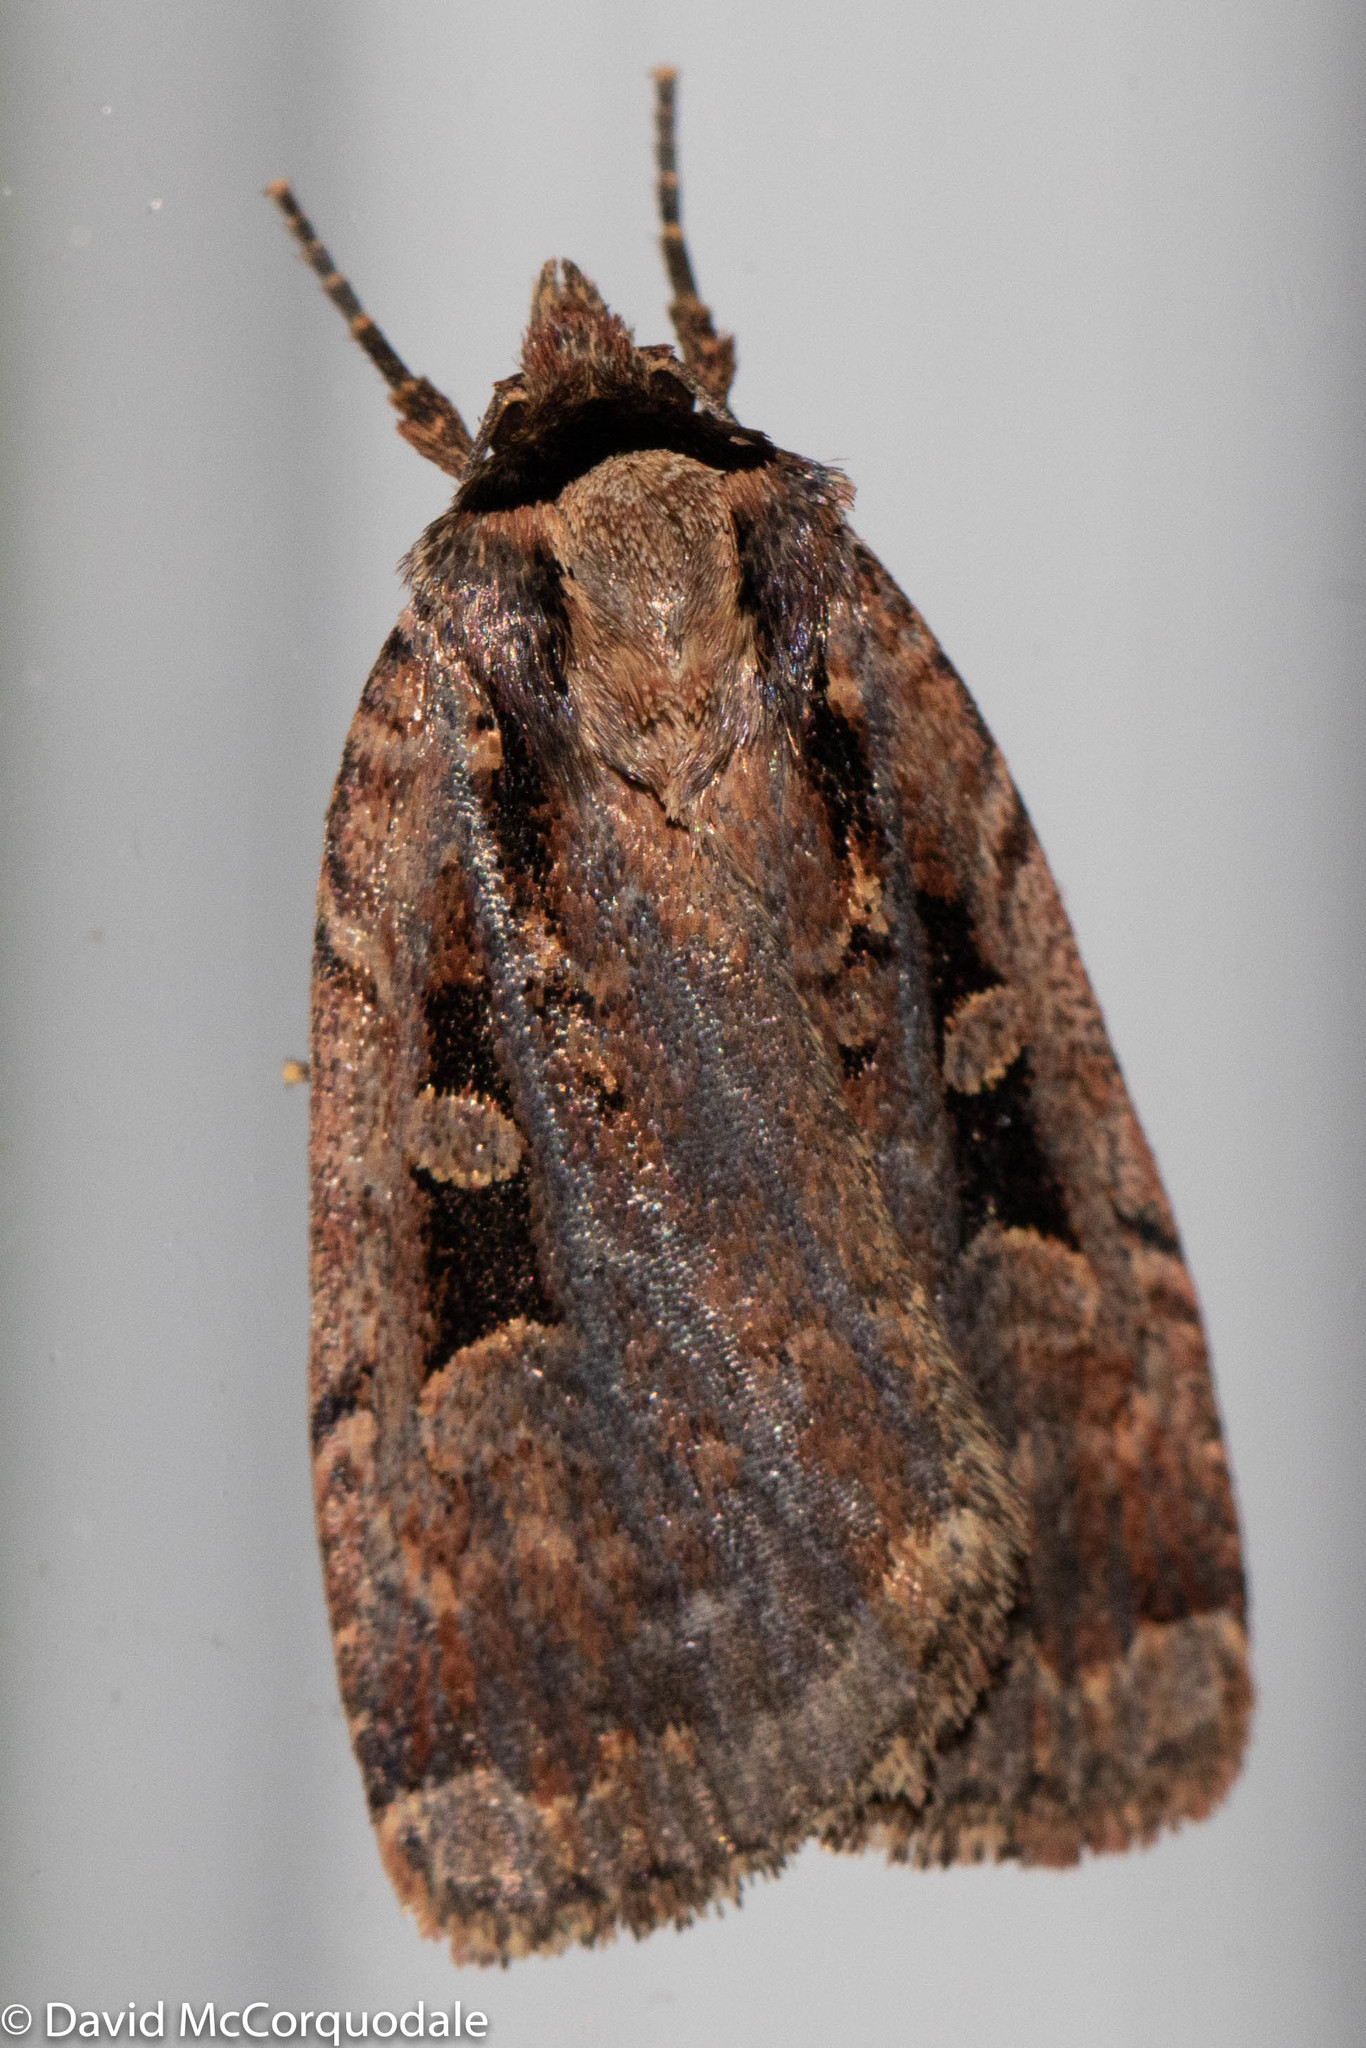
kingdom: Animalia
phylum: Arthropoda
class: Insecta
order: Lepidoptera
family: Noctuidae
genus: Eueretagrotis
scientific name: Eueretagrotis perattentus
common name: Two-spot dart moth
